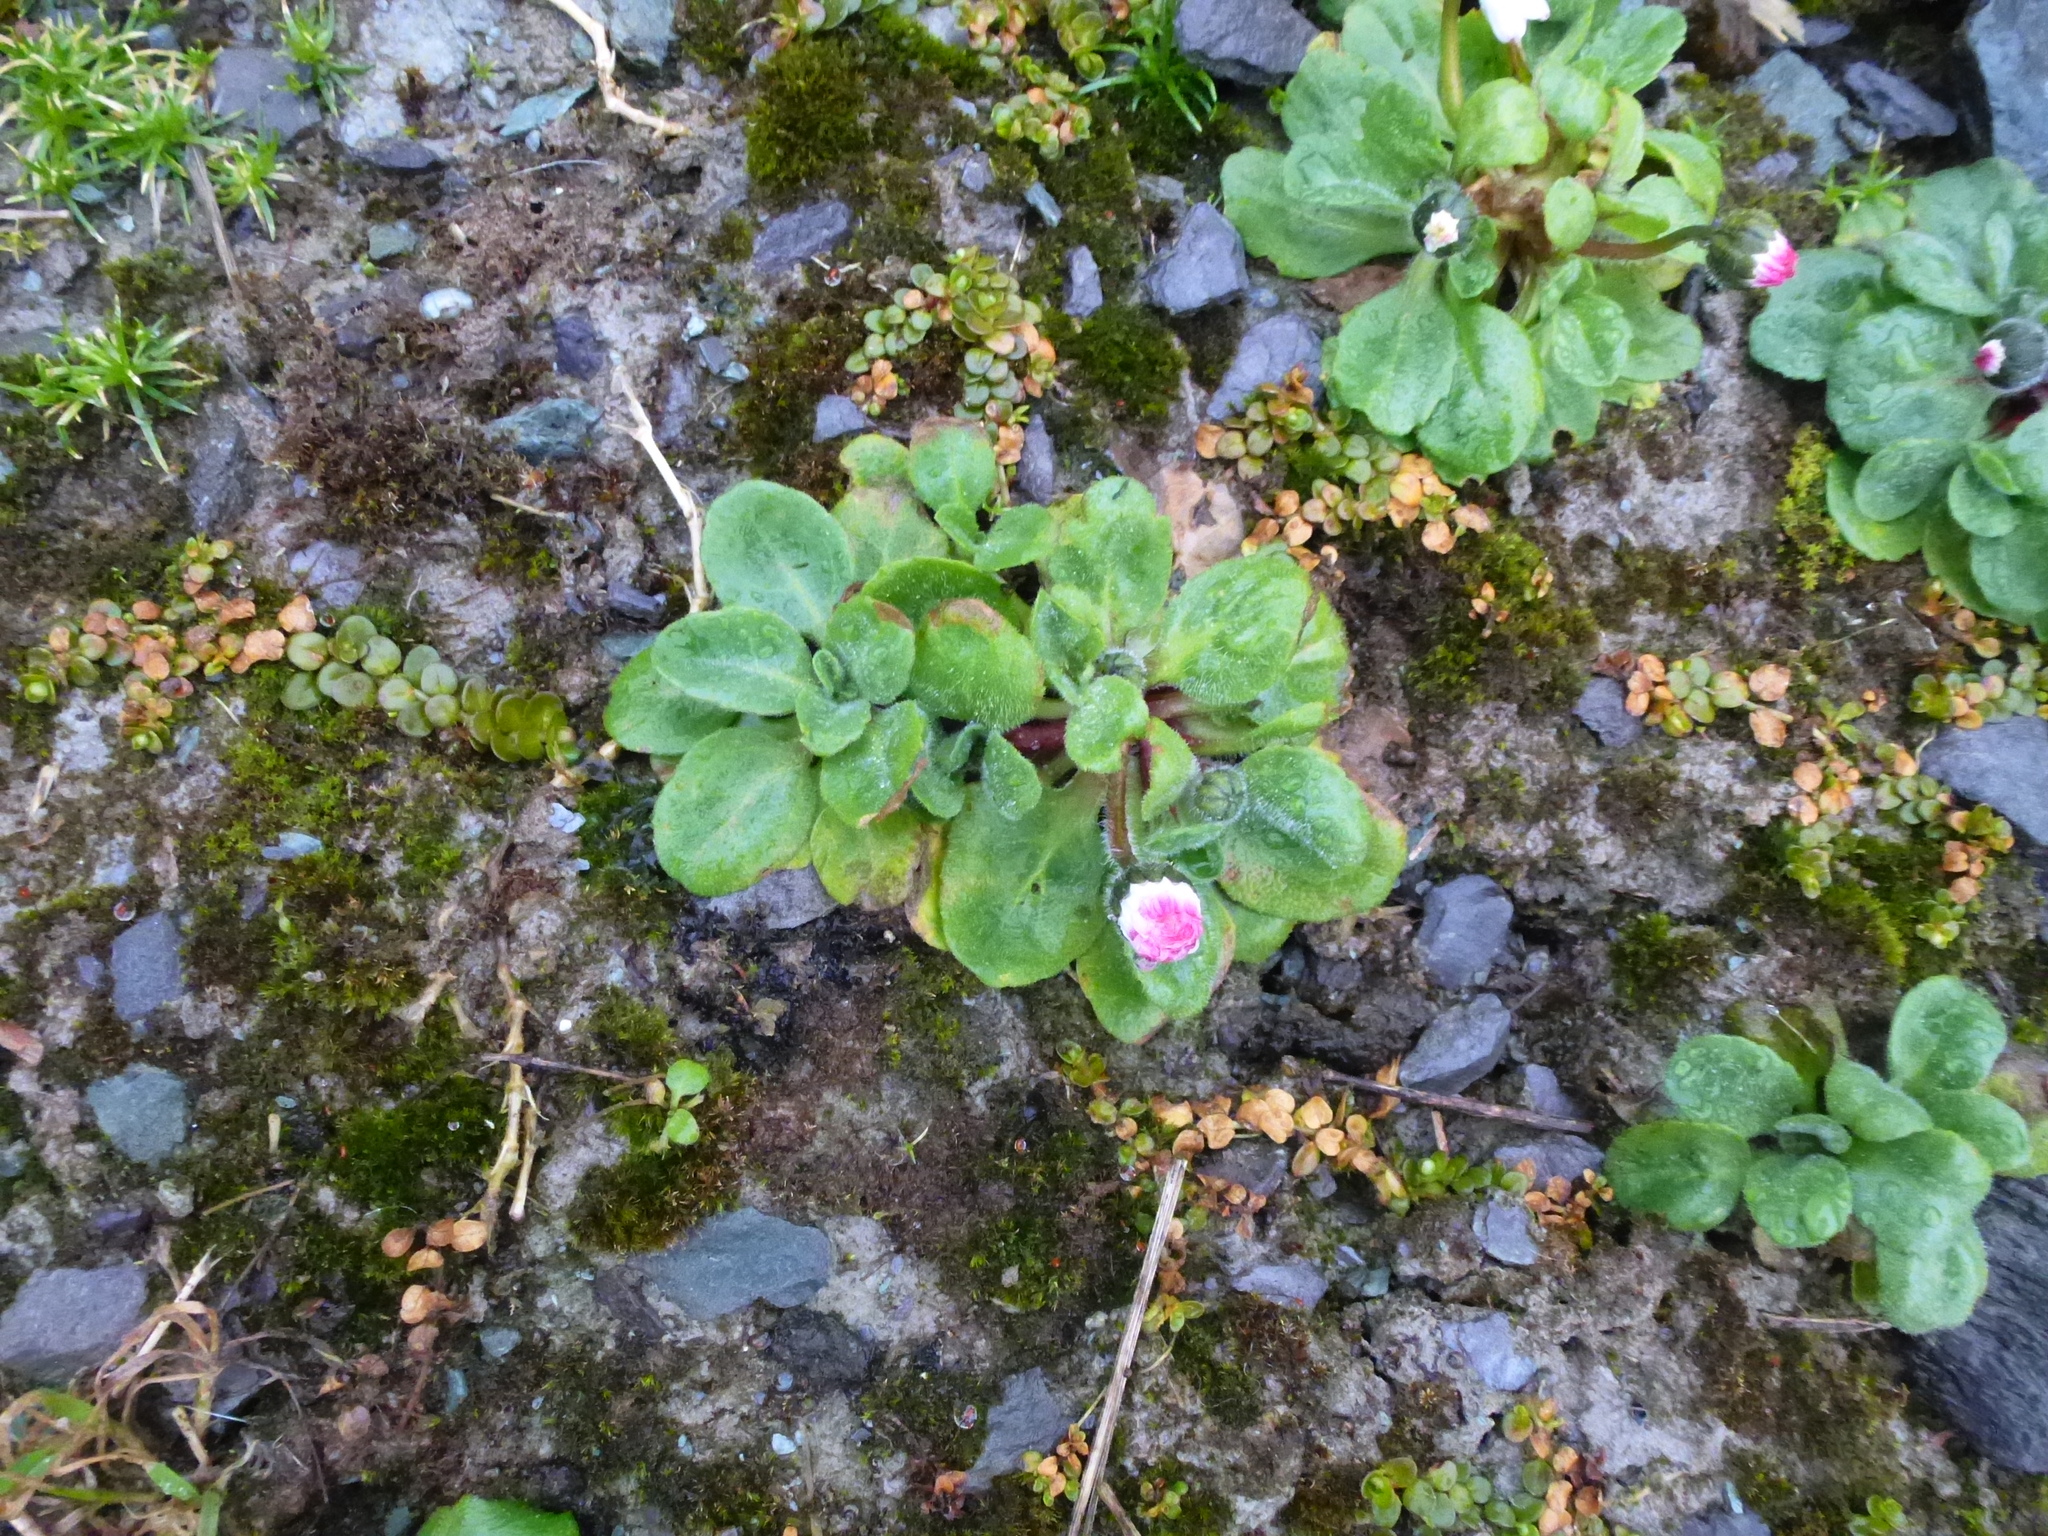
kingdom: Plantae
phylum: Tracheophyta
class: Magnoliopsida
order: Asterales
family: Asteraceae
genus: Bellis
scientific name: Bellis perennis
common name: Lawndaisy
